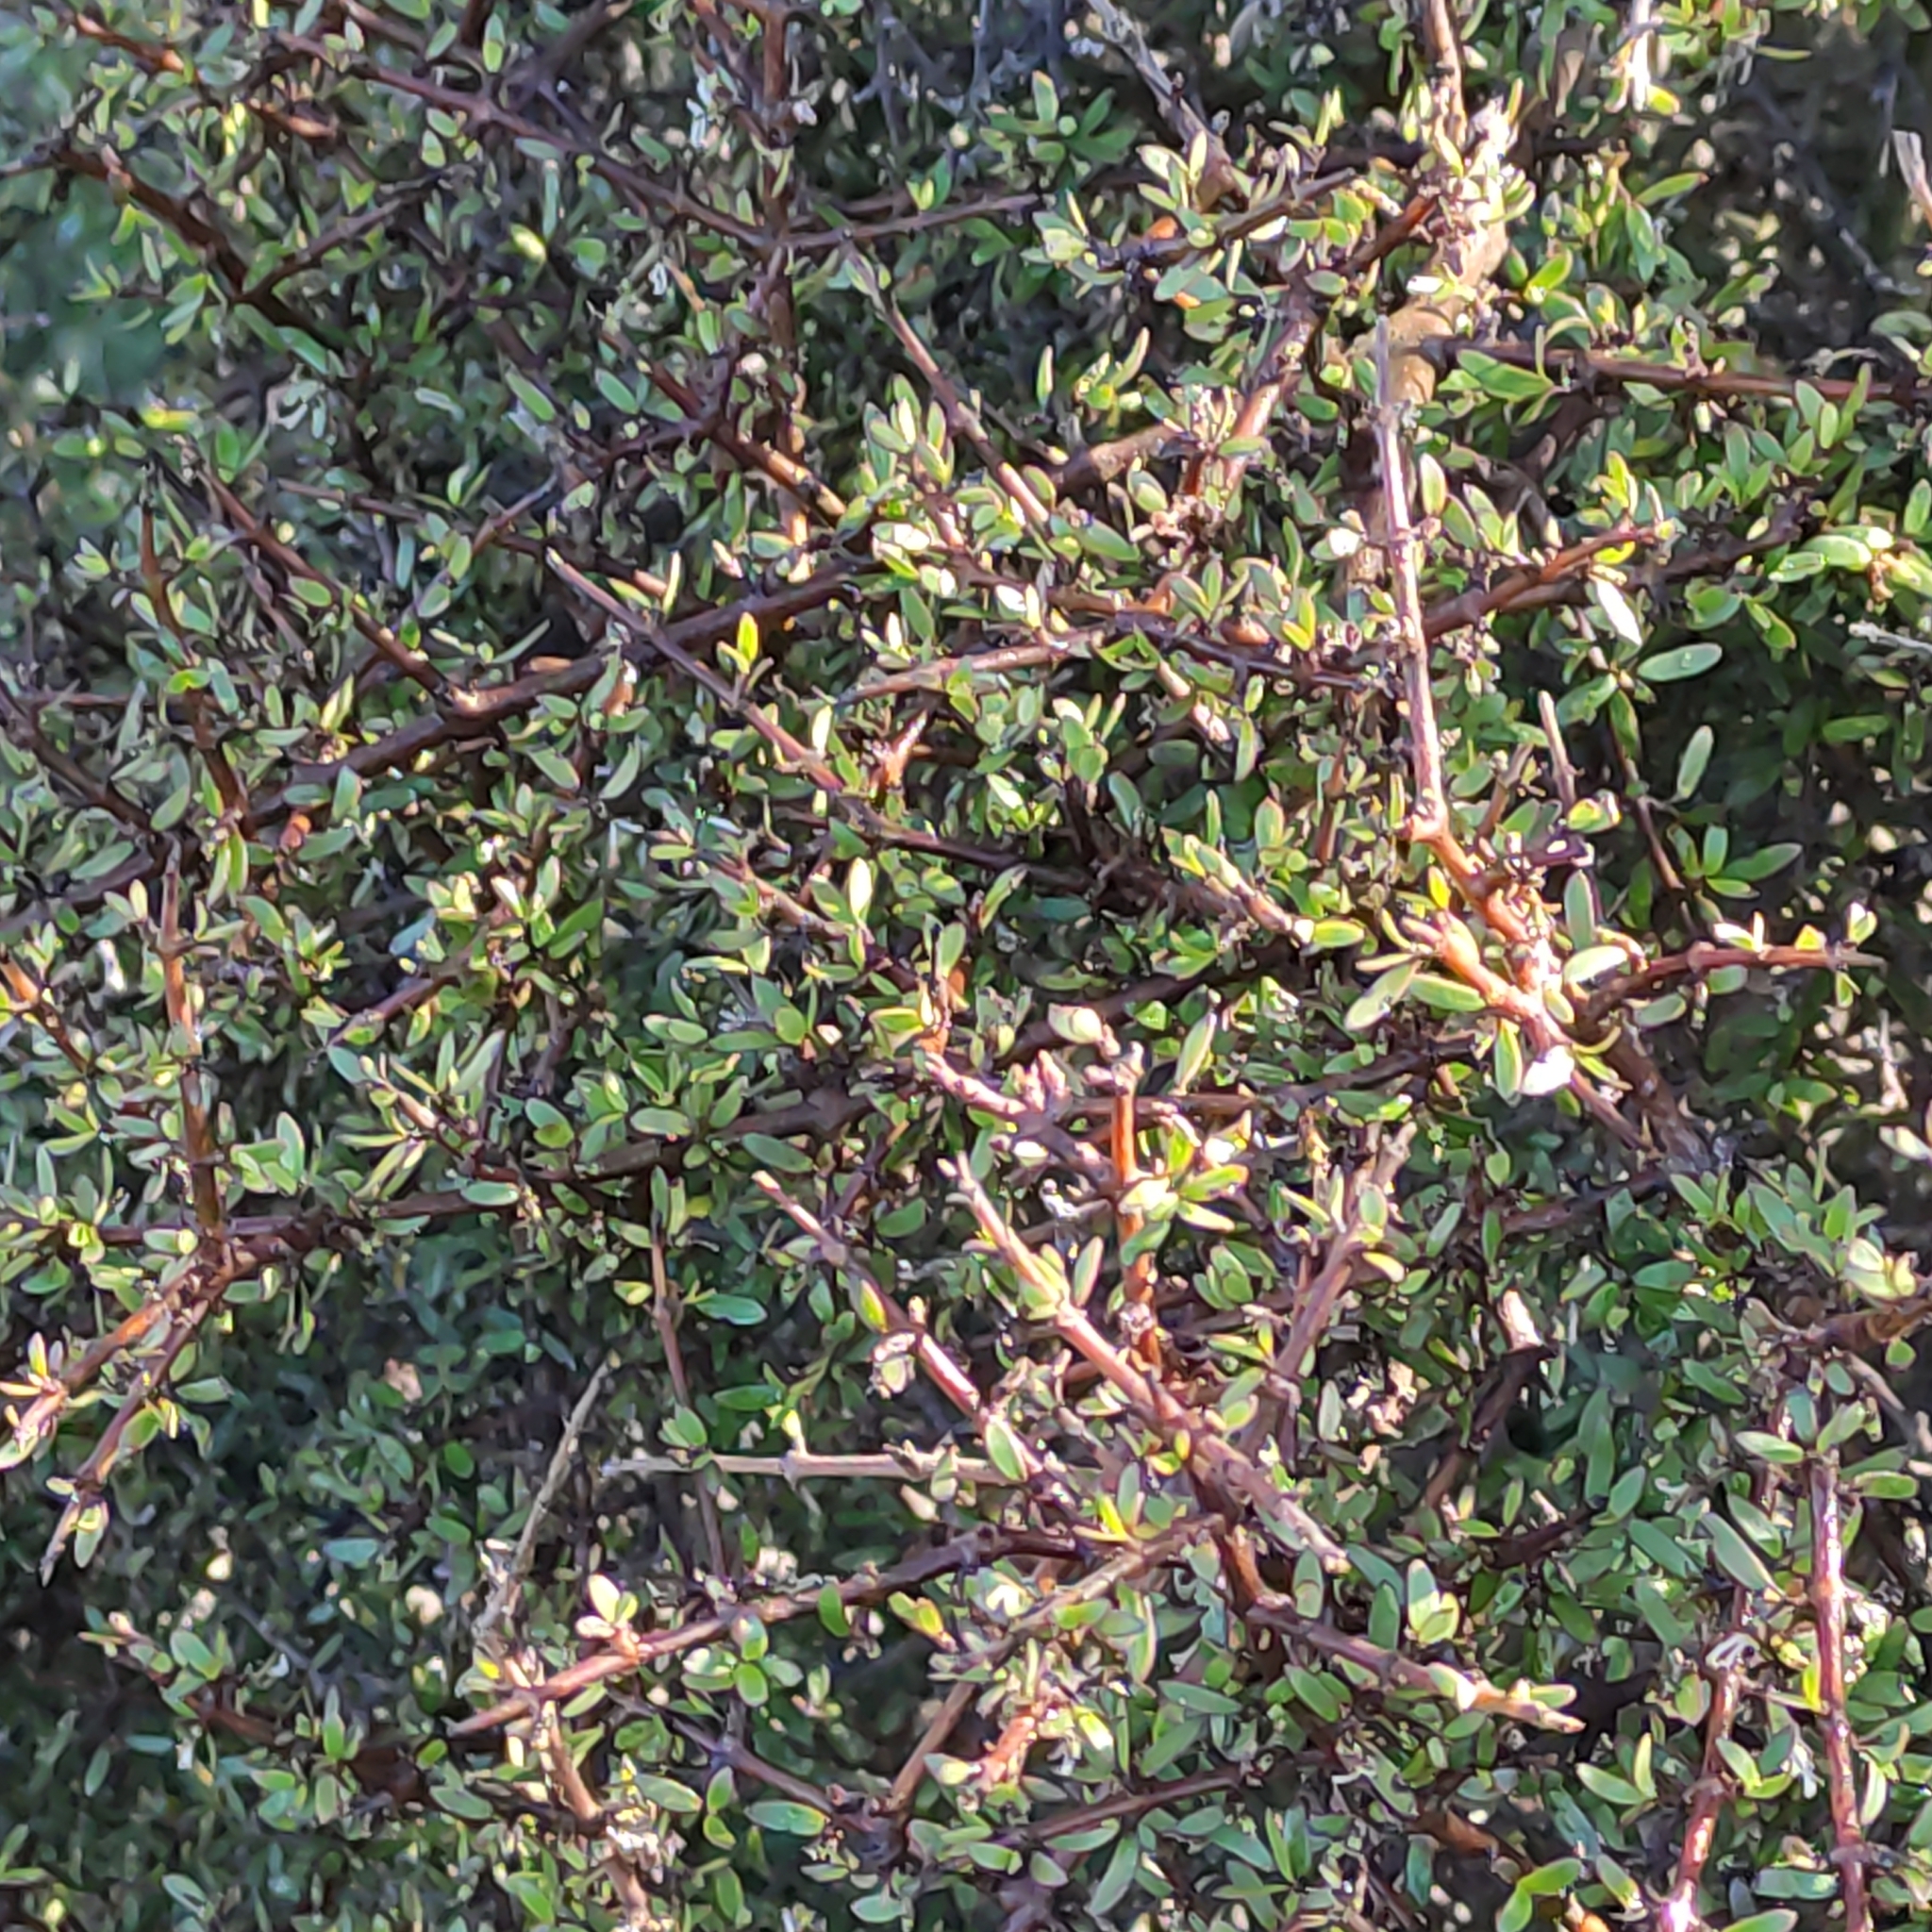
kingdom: Plantae
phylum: Tracheophyta
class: Magnoliopsida
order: Gentianales
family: Rubiaceae
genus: Coprosma
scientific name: Coprosma propinqua
